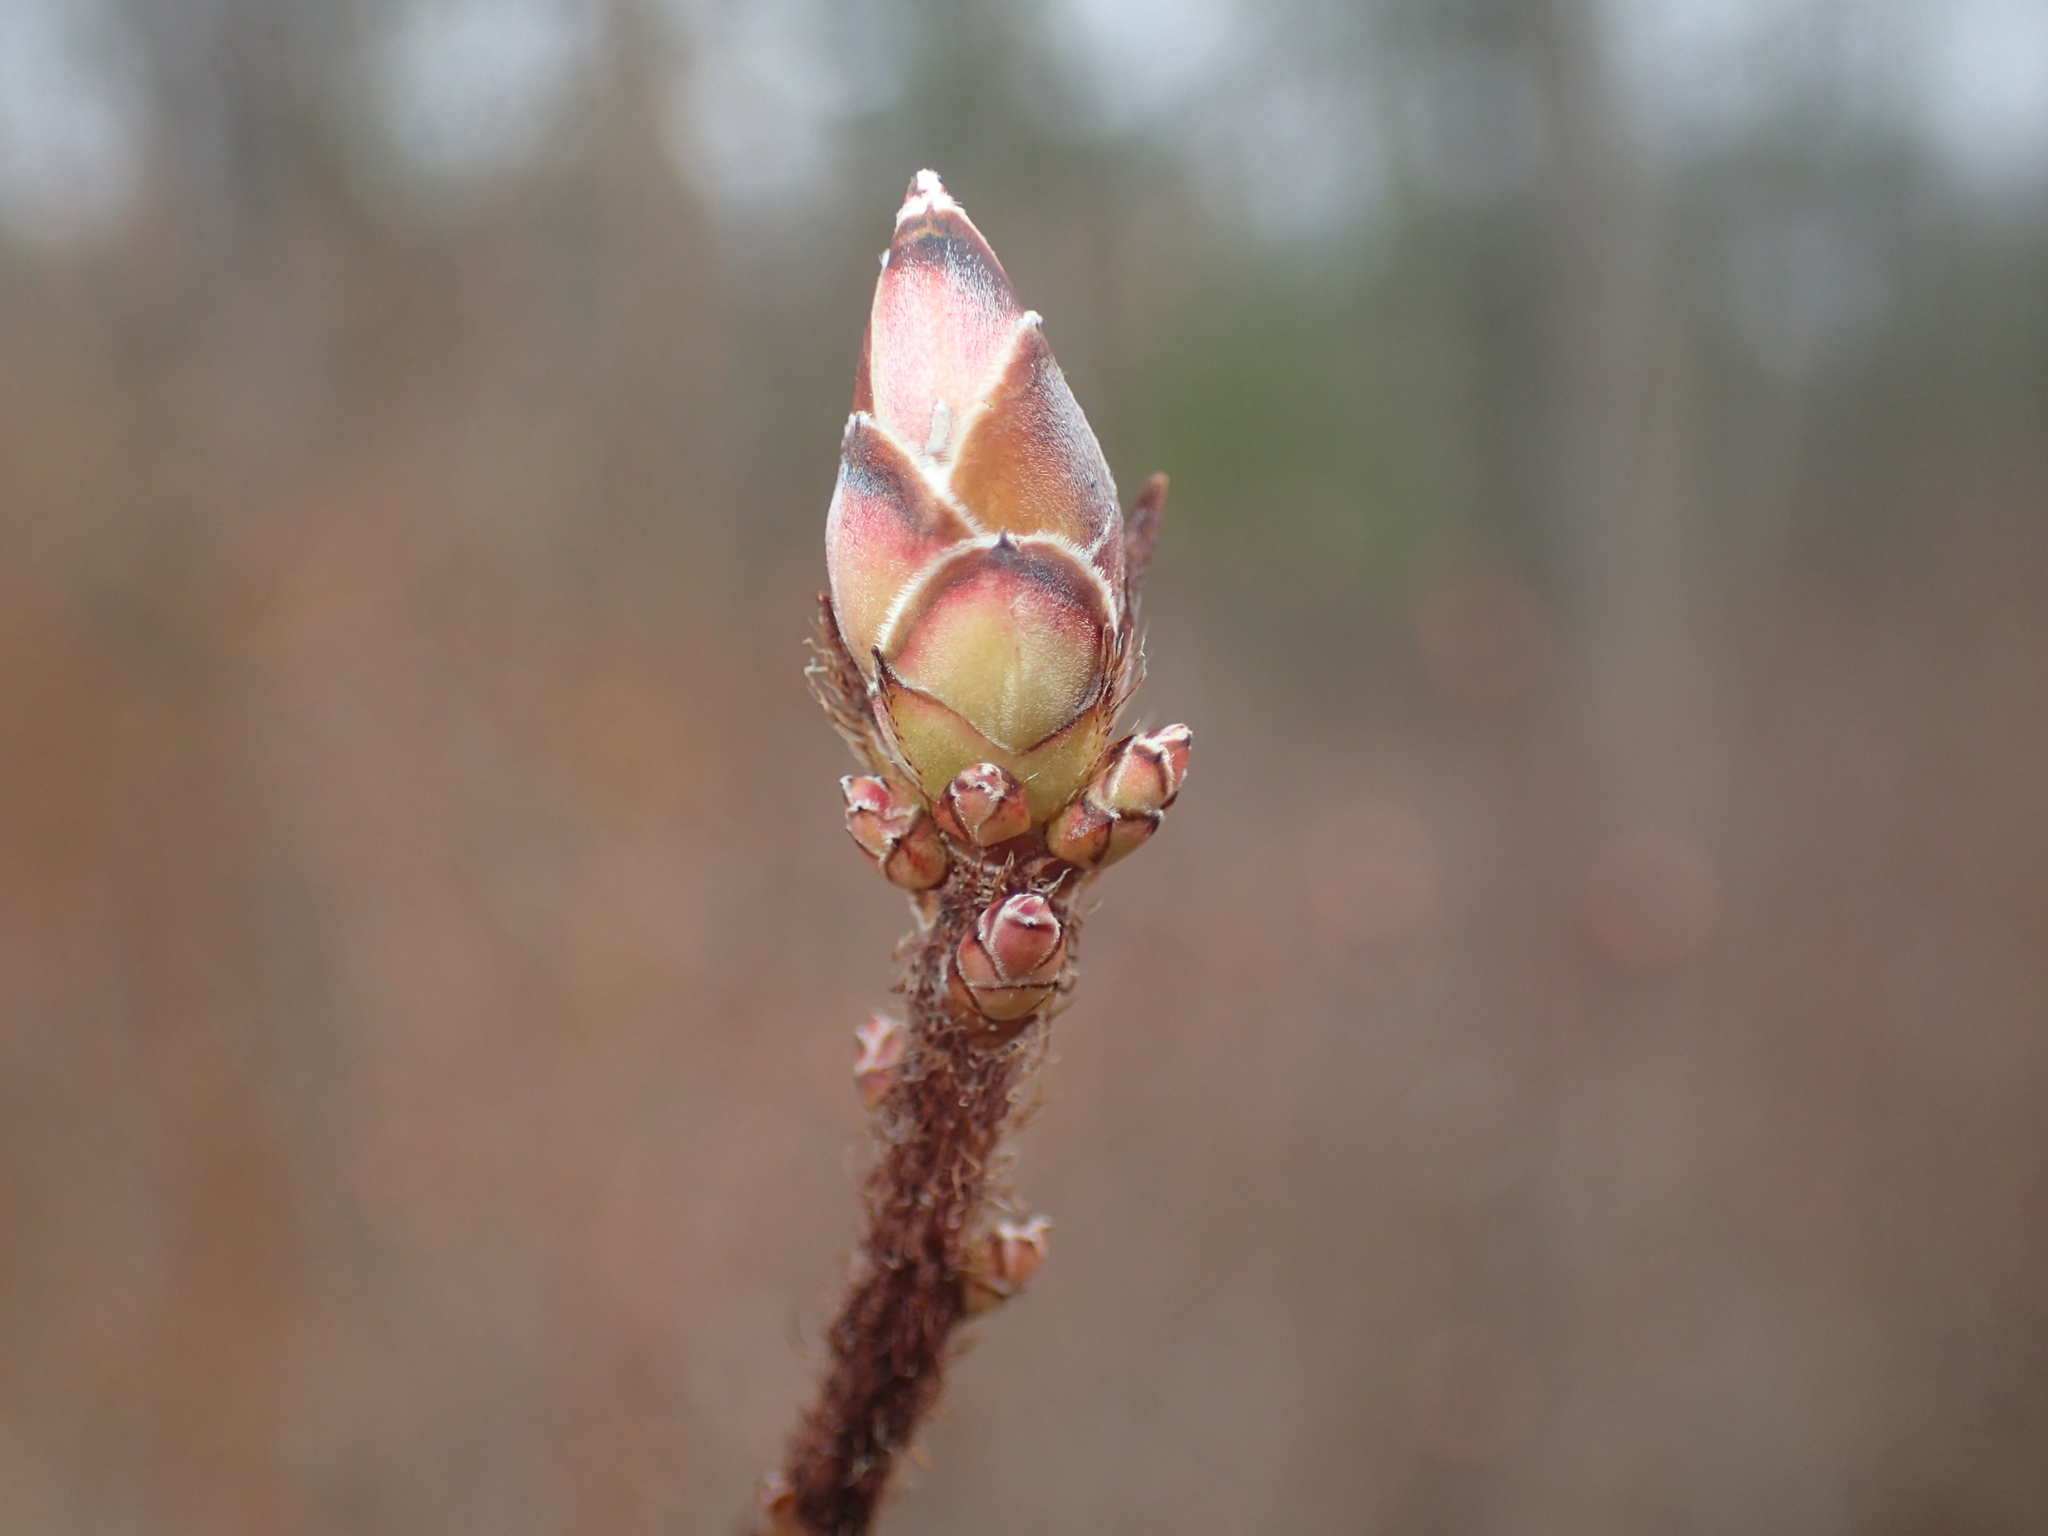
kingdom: Plantae
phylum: Tracheophyta
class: Magnoliopsida
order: Ericales
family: Ericaceae
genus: Rhododendron
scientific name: Rhododendron viscosum
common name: Clammy azalea
